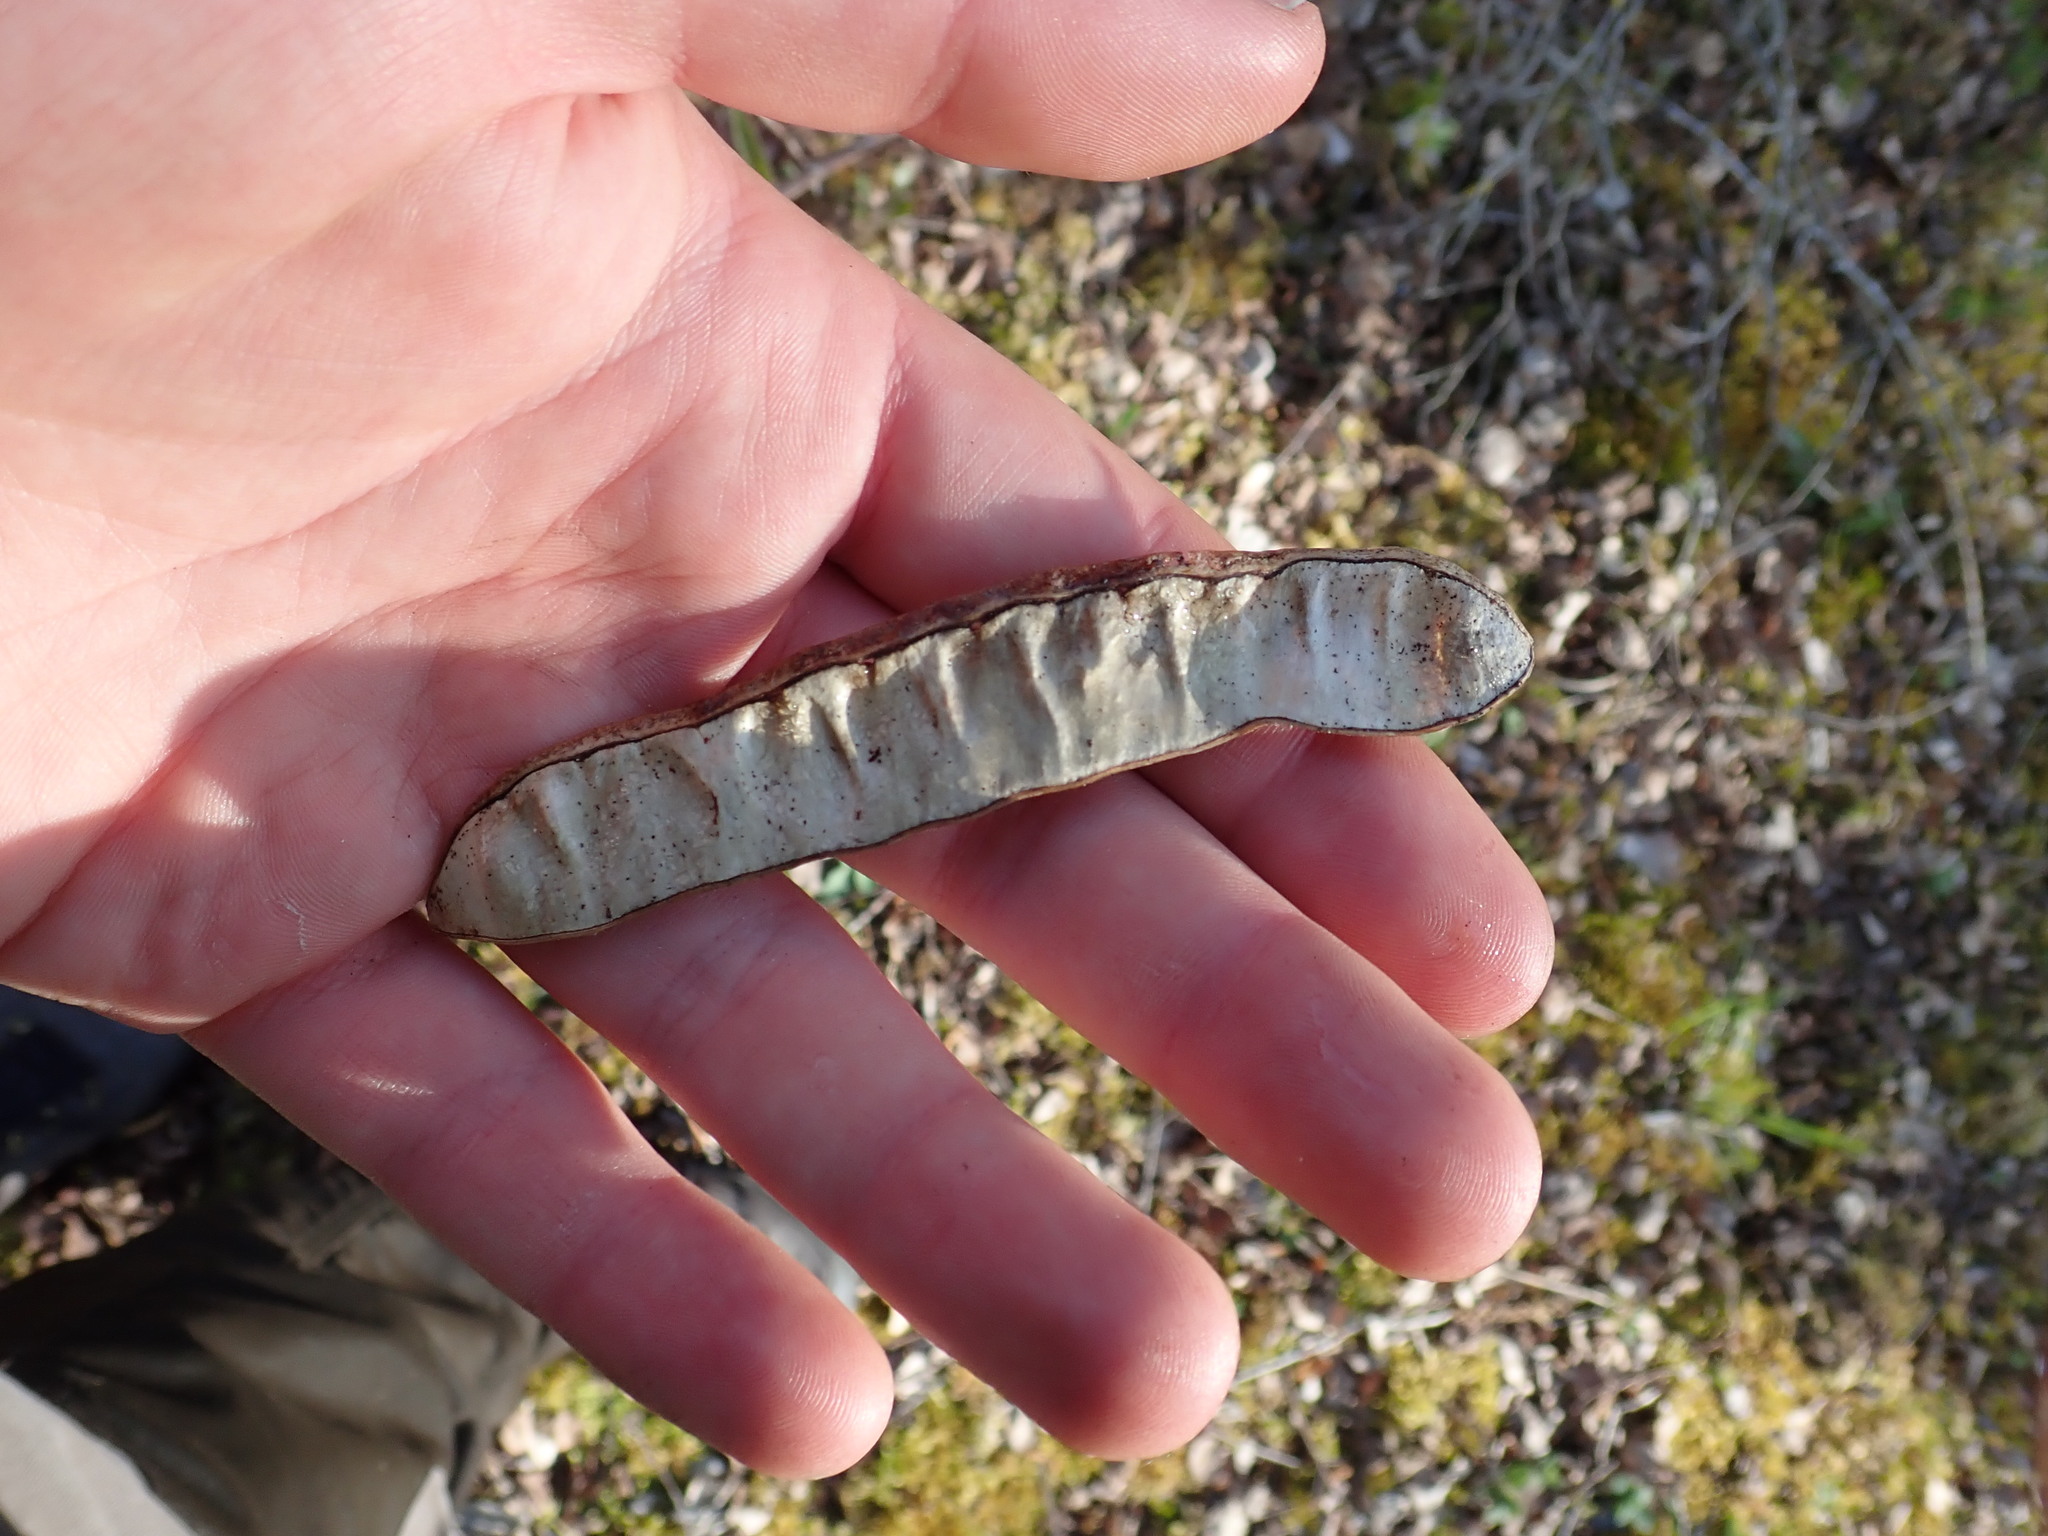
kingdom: Plantae
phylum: Tracheophyta
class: Magnoliopsida
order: Fabales
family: Fabaceae
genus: Robinia
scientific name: Robinia pseudoacacia
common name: Black locust
